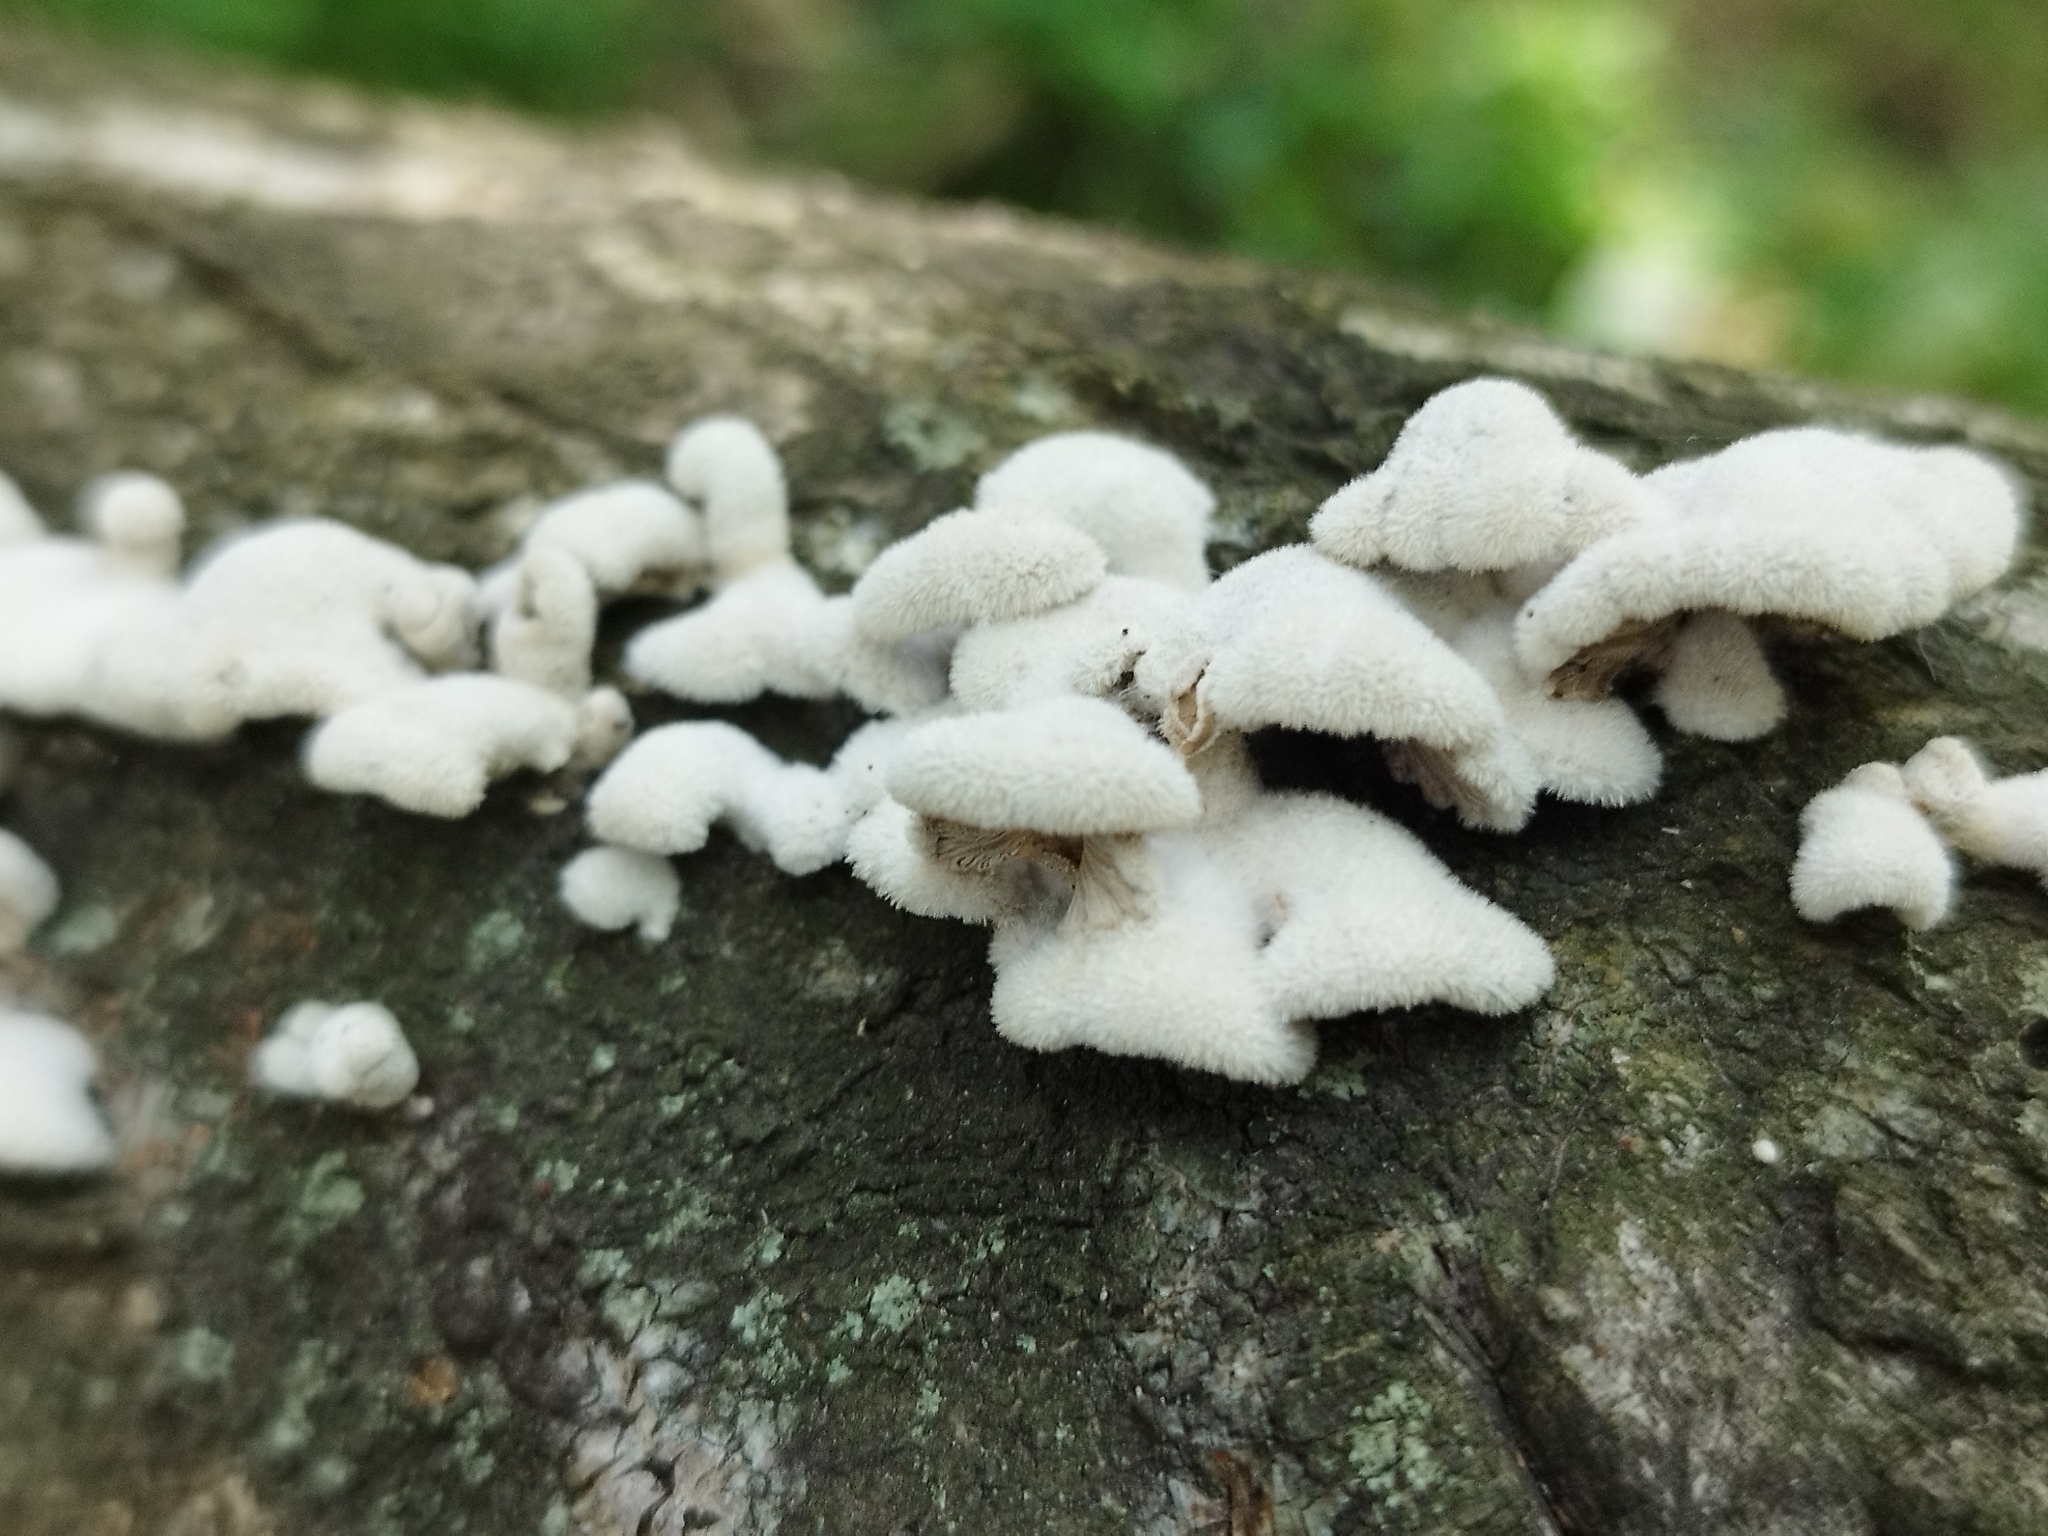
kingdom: Fungi
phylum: Basidiomycota
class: Agaricomycetes
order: Agaricales
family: Schizophyllaceae
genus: Schizophyllum
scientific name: Schizophyllum commune
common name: Common porecrust
